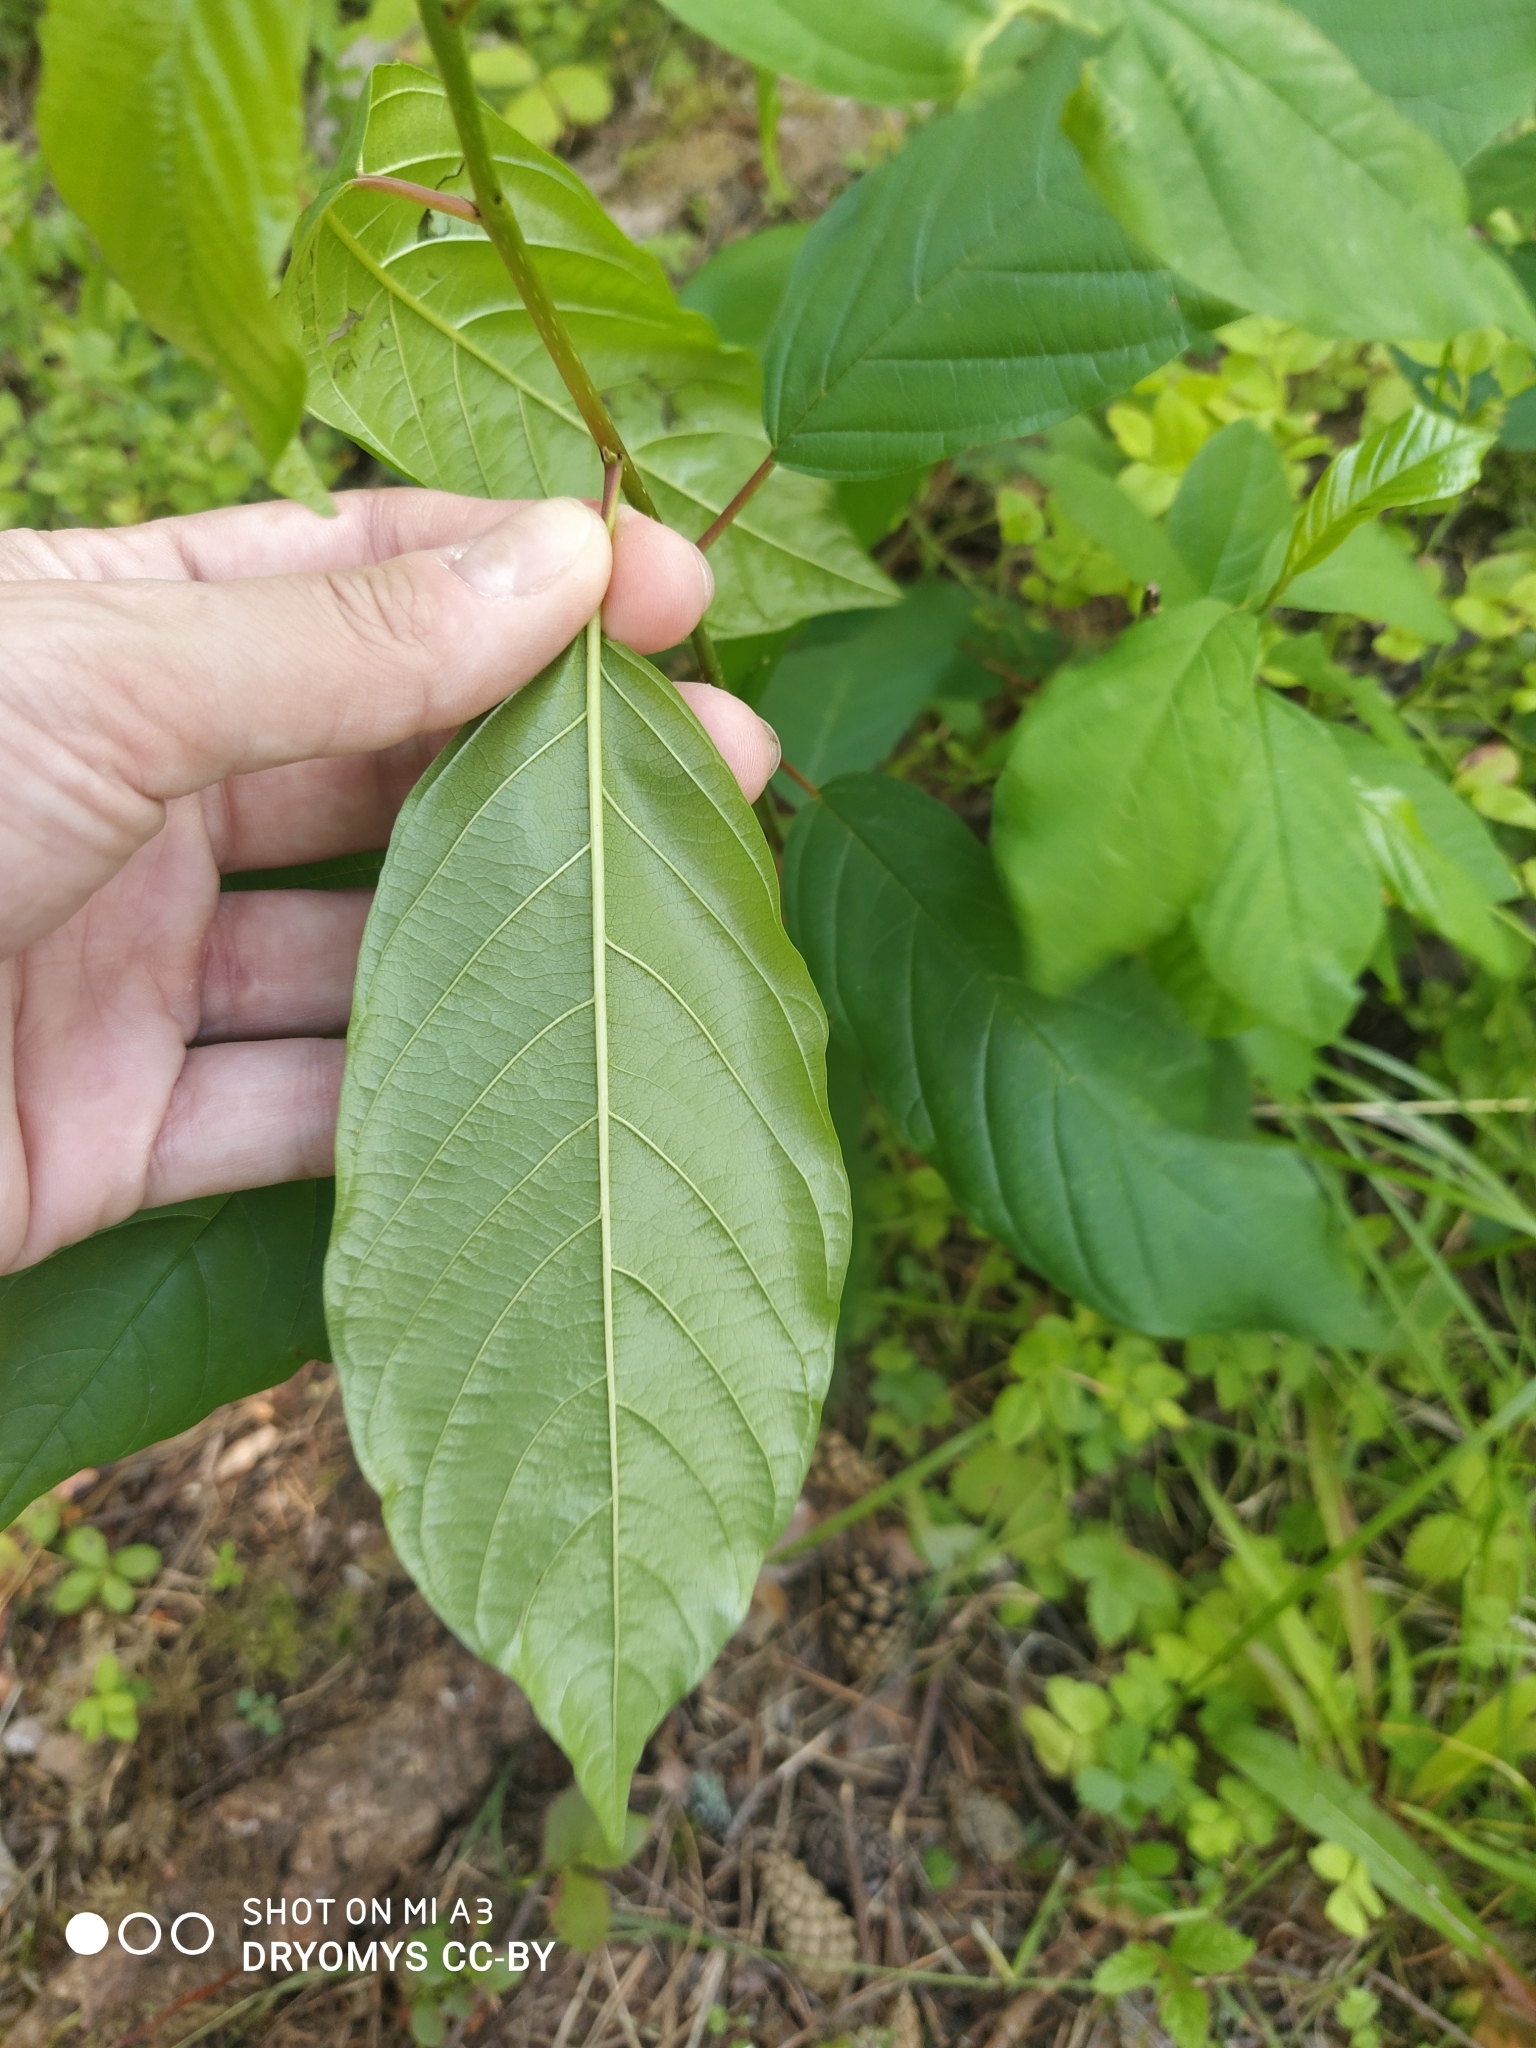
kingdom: Plantae
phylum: Tracheophyta
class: Magnoliopsida
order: Rosales
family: Rhamnaceae
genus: Frangula
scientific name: Frangula alnus
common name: Alder buckthorn
